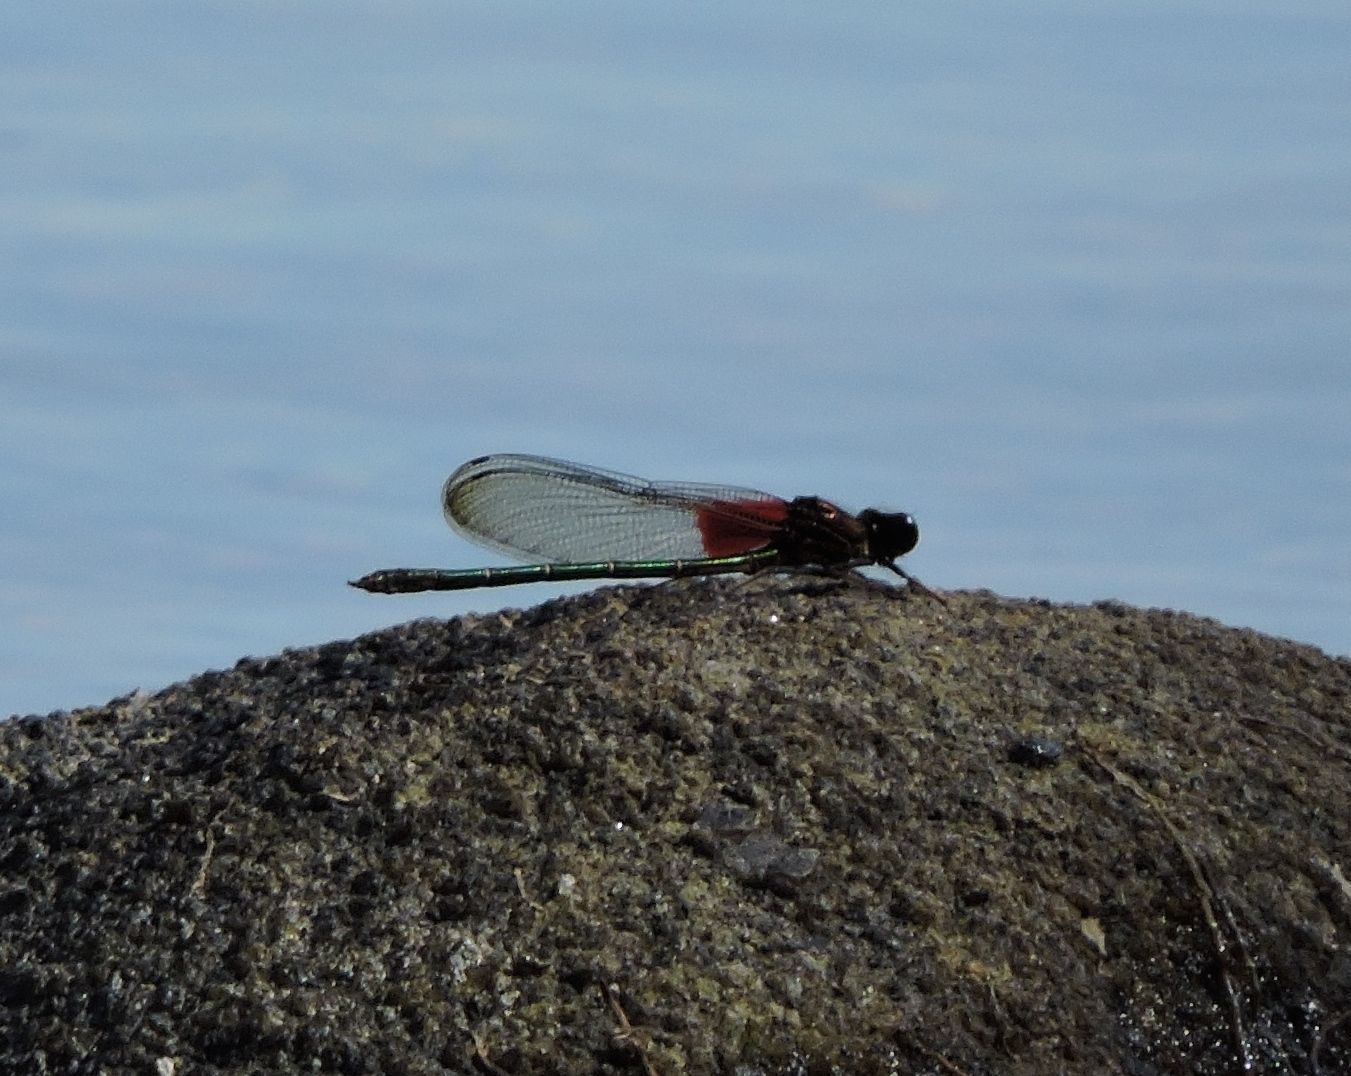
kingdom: Animalia
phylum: Arthropoda
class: Insecta
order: Odonata
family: Calopterygidae
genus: Hetaerina
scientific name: Hetaerina americana
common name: American rubyspot
